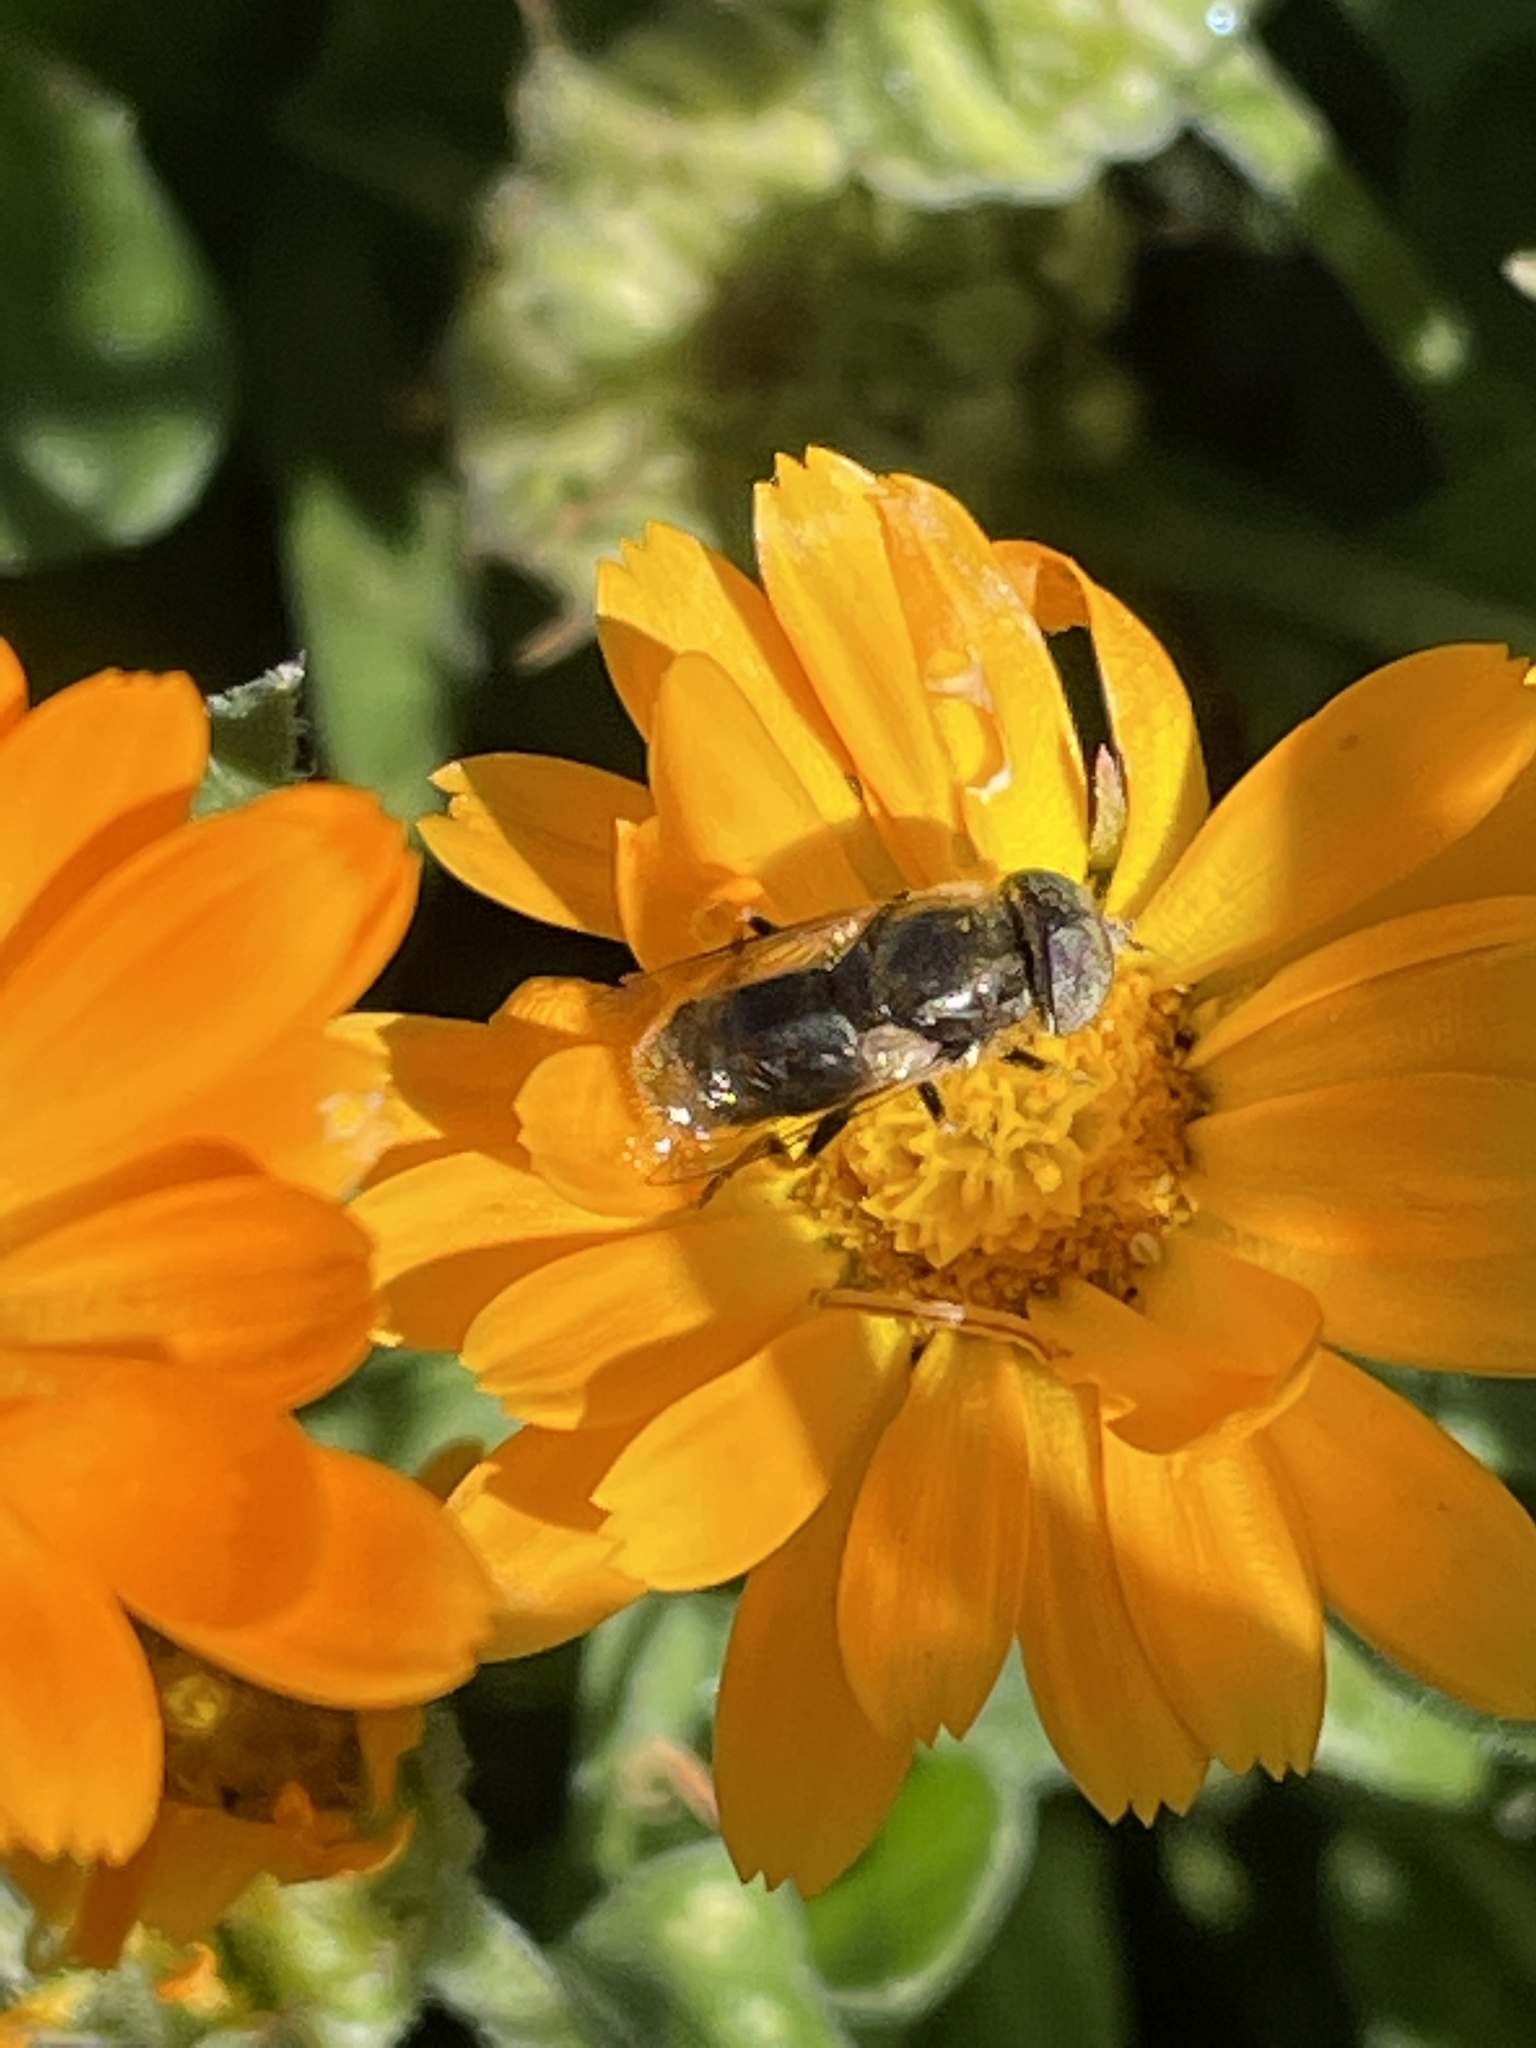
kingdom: Animalia
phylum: Arthropoda
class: Insecta
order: Diptera
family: Syrphidae
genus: Eristalinus
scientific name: Eristalinus aeneus
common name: Syrphid fly
